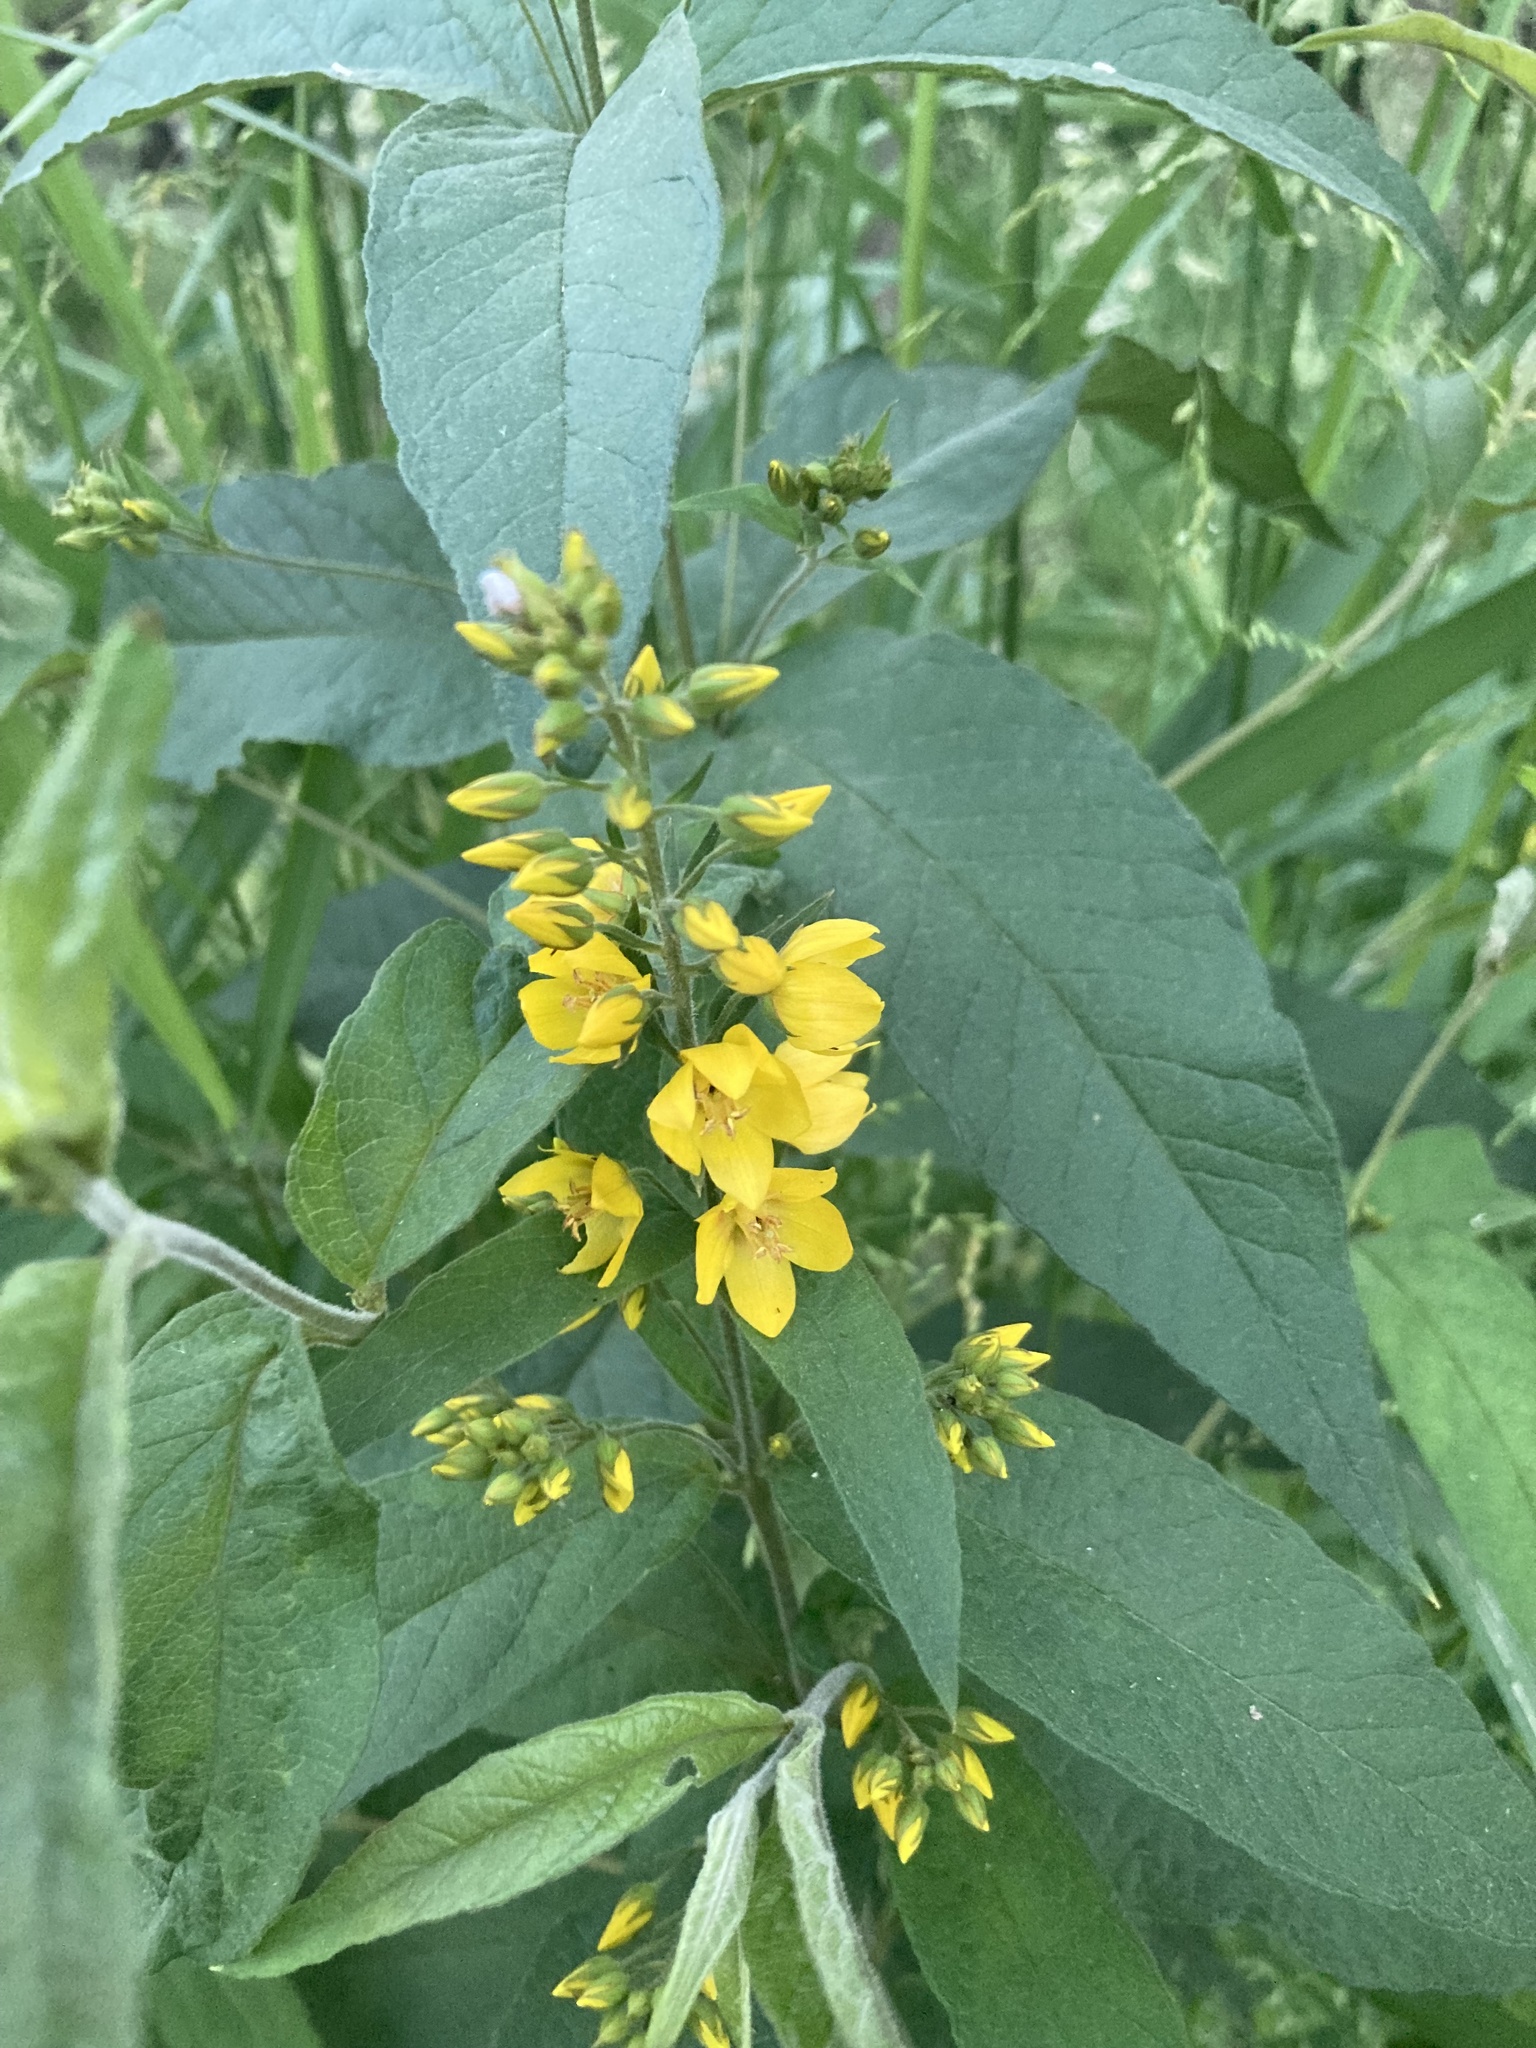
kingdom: Plantae
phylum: Tracheophyta
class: Magnoliopsida
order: Ericales
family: Primulaceae
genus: Lysimachia
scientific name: Lysimachia vulgaris
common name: Yellow loosestrife
